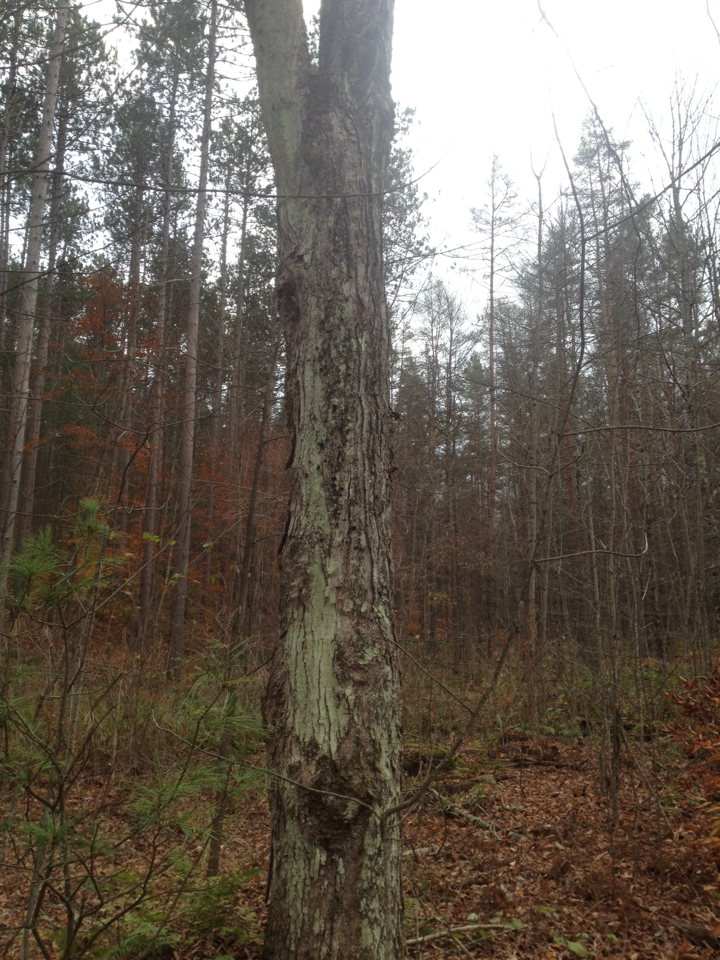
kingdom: Plantae
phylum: Tracheophyta
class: Magnoliopsida
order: Sapindales
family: Sapindaceae
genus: Acer
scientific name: Acer saccharum
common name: Sugar maple
